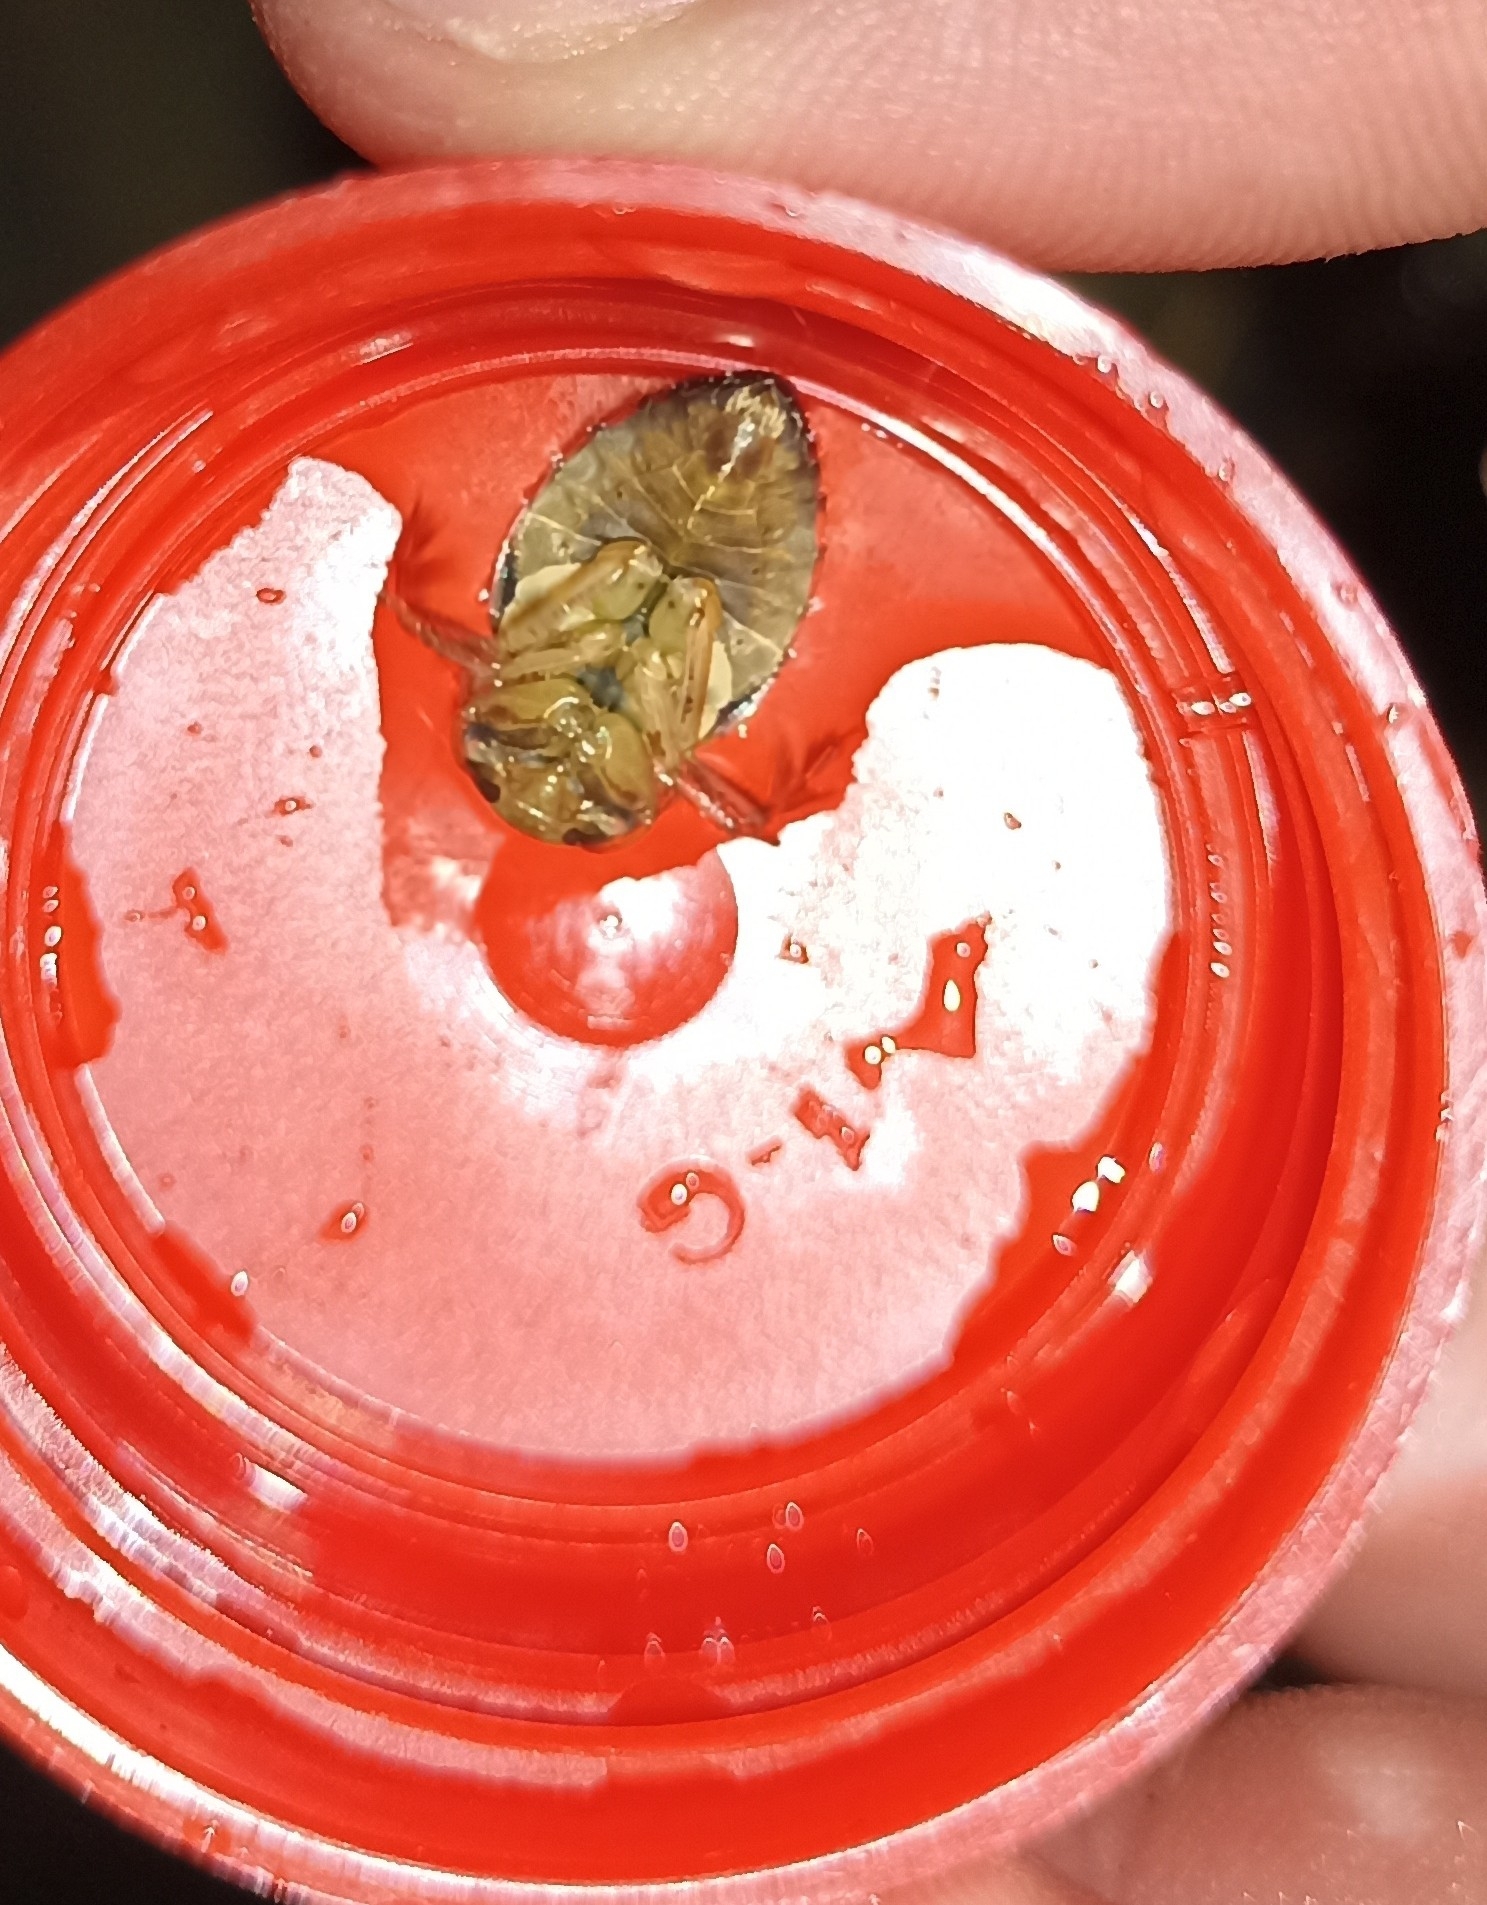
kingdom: Animalia
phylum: Arthropoda
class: Insecta
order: Hemiptera
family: Naucoridae
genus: Ilyocoris
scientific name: Ilyocoris cimicoides
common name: Saucer bugs
